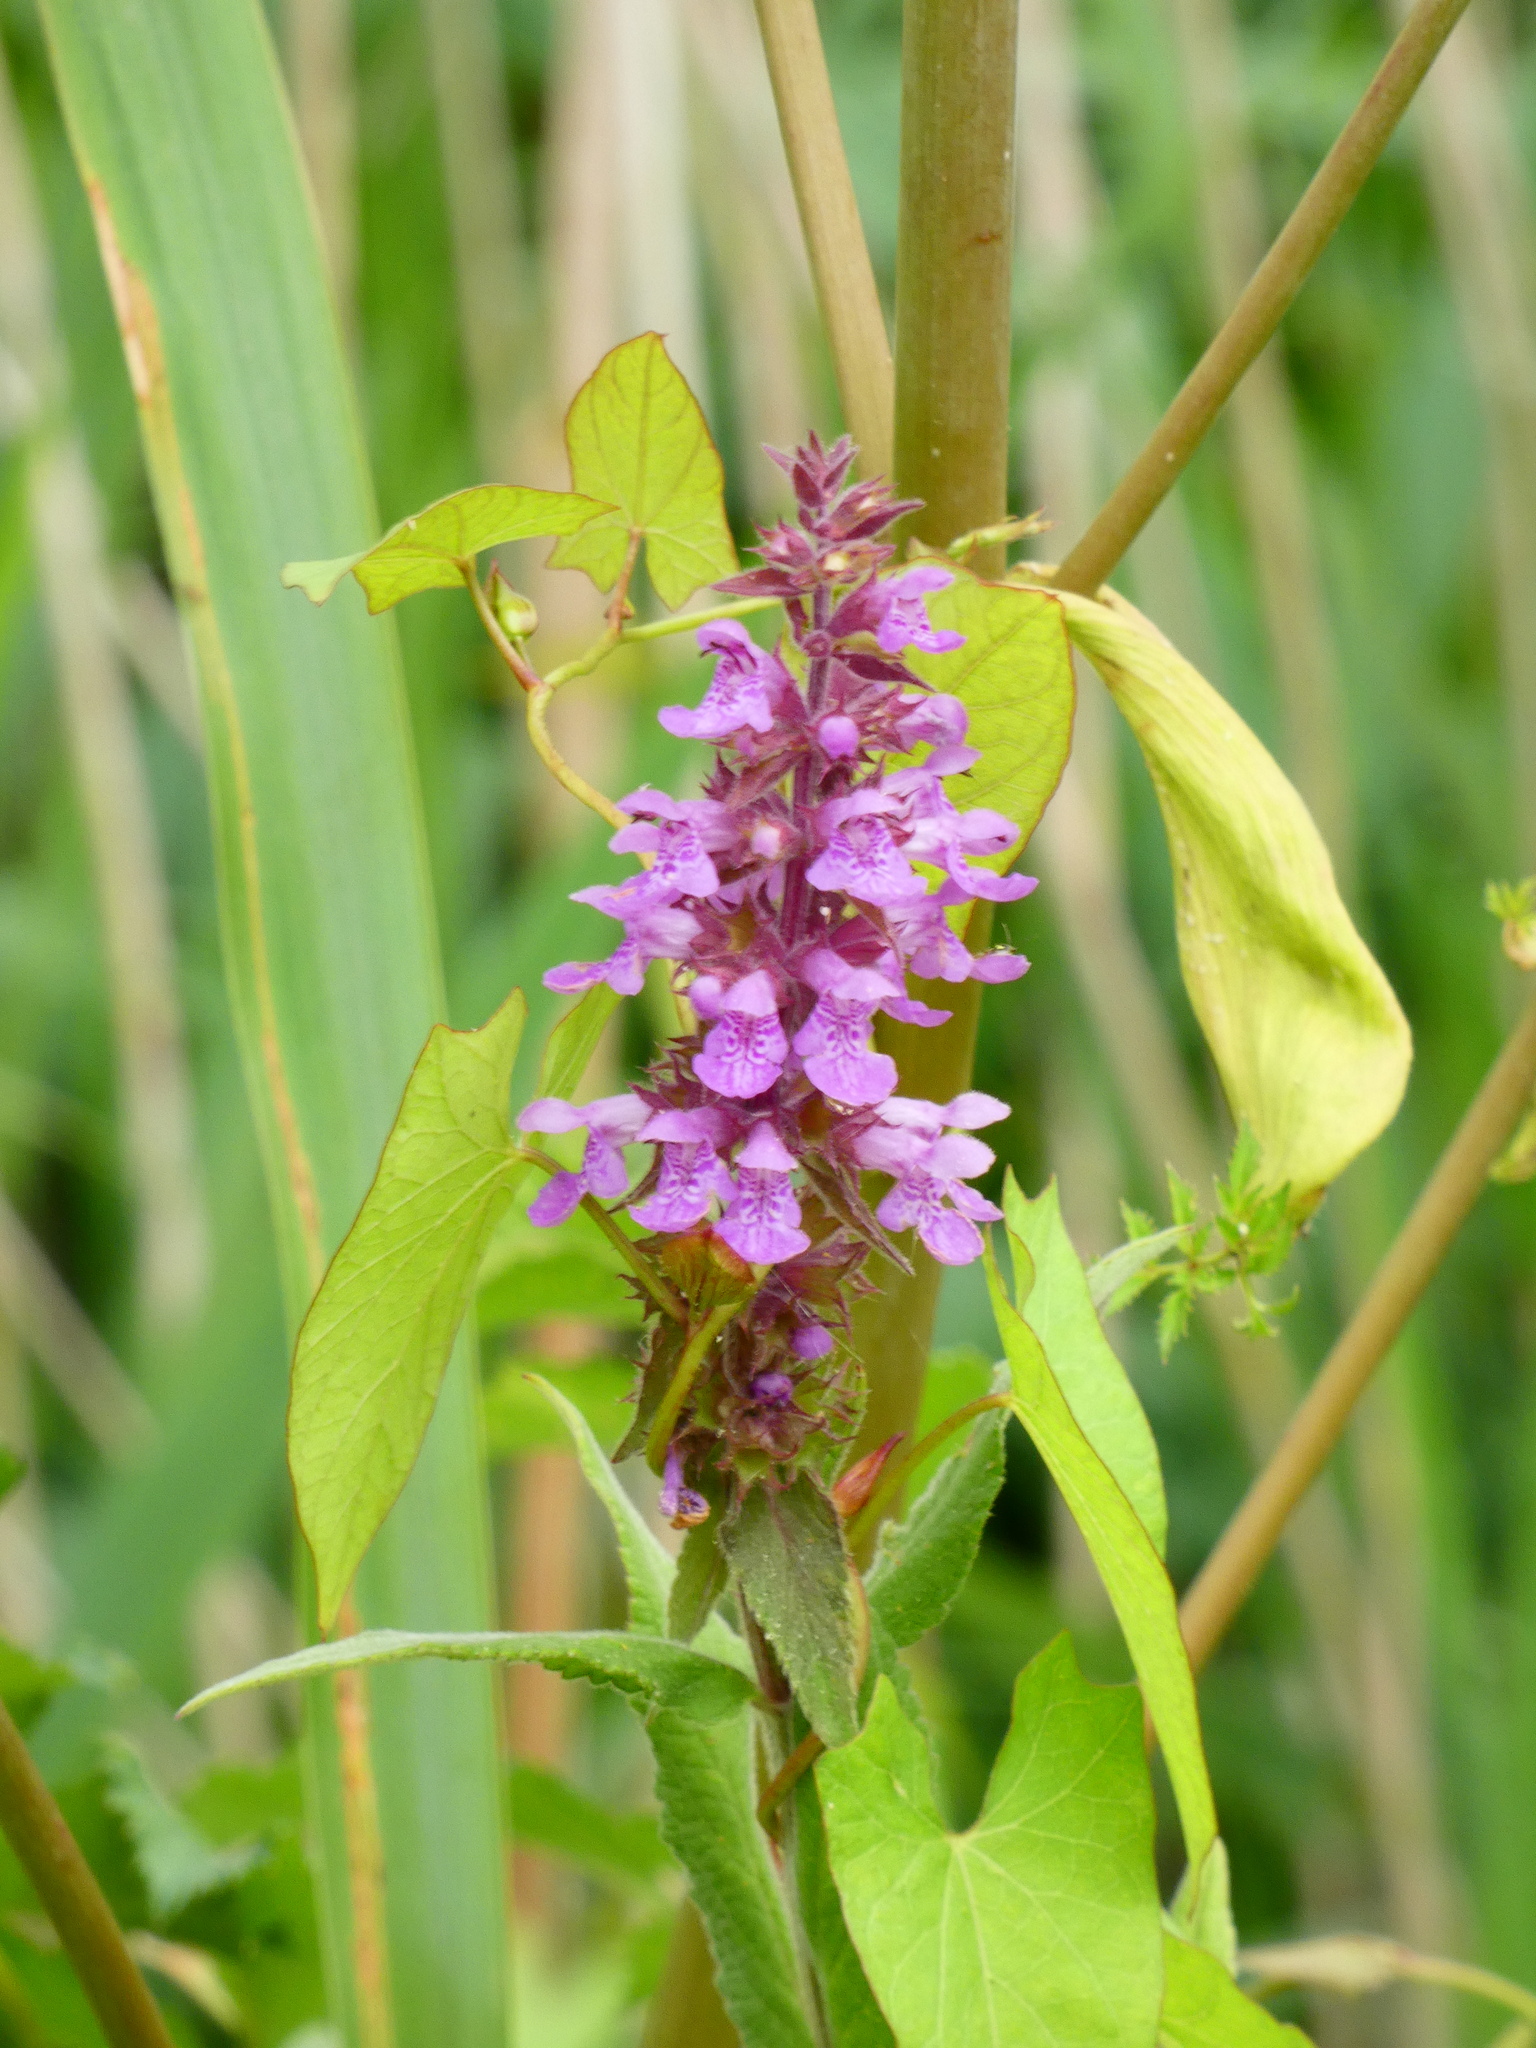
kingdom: Plantae
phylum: Tracheophyta
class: Magnoliopsida
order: Lamiales
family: Lamiaceae
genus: Stachys
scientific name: Stachys palustris
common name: Marsh woundwort
